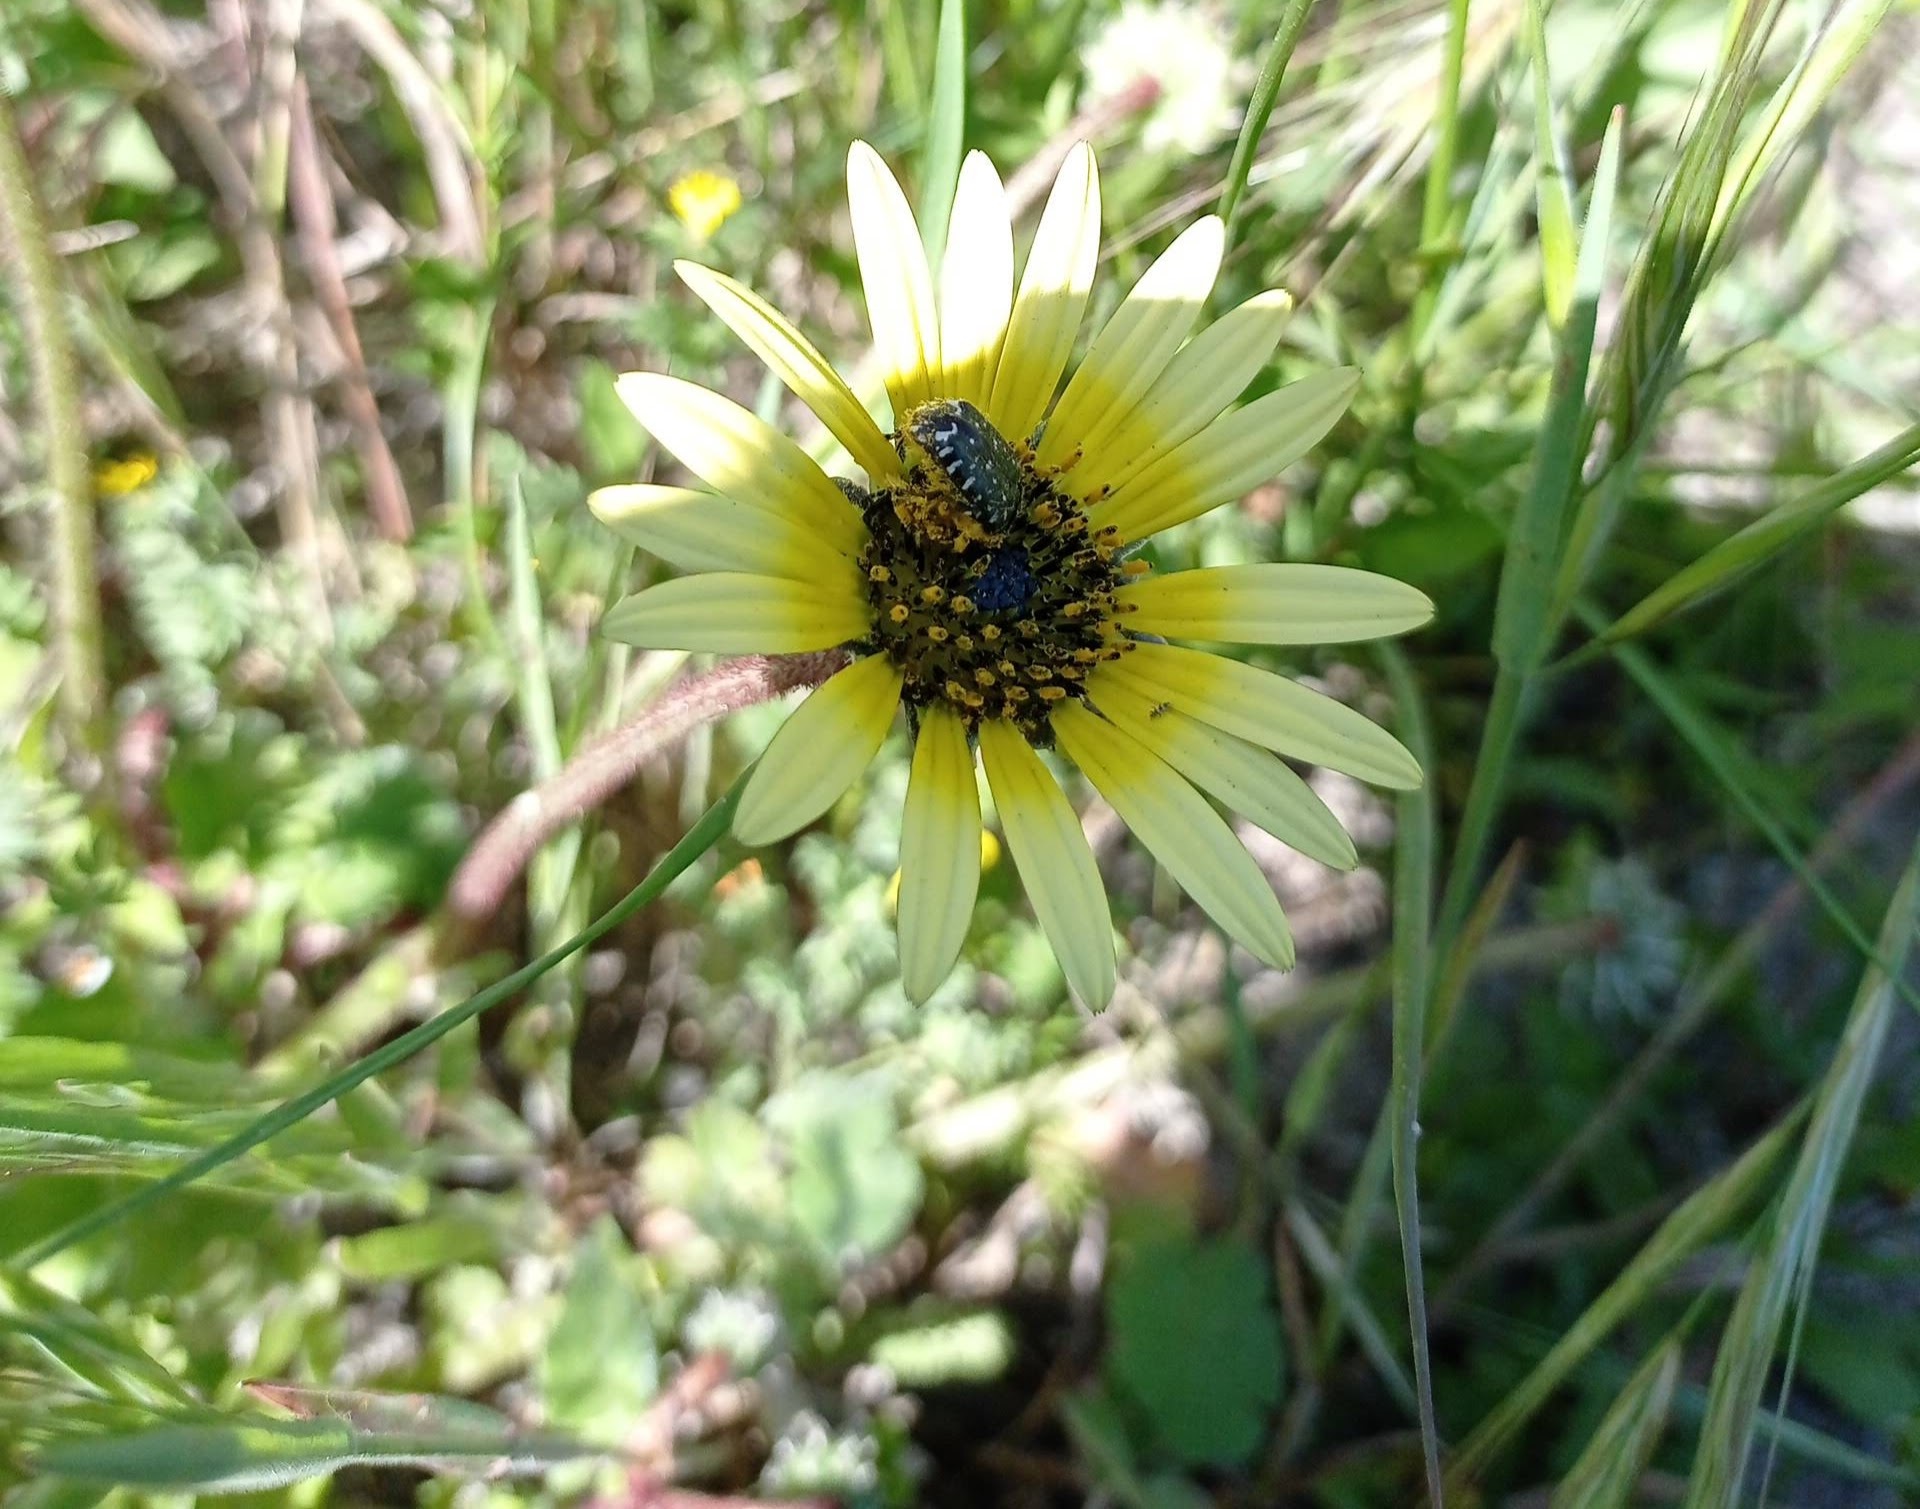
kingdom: Animalia
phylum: Arthropoda
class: Insecta
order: Coleoptera
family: Scarabaeidae
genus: Oxythyrea
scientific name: Oxythyrea funesta
